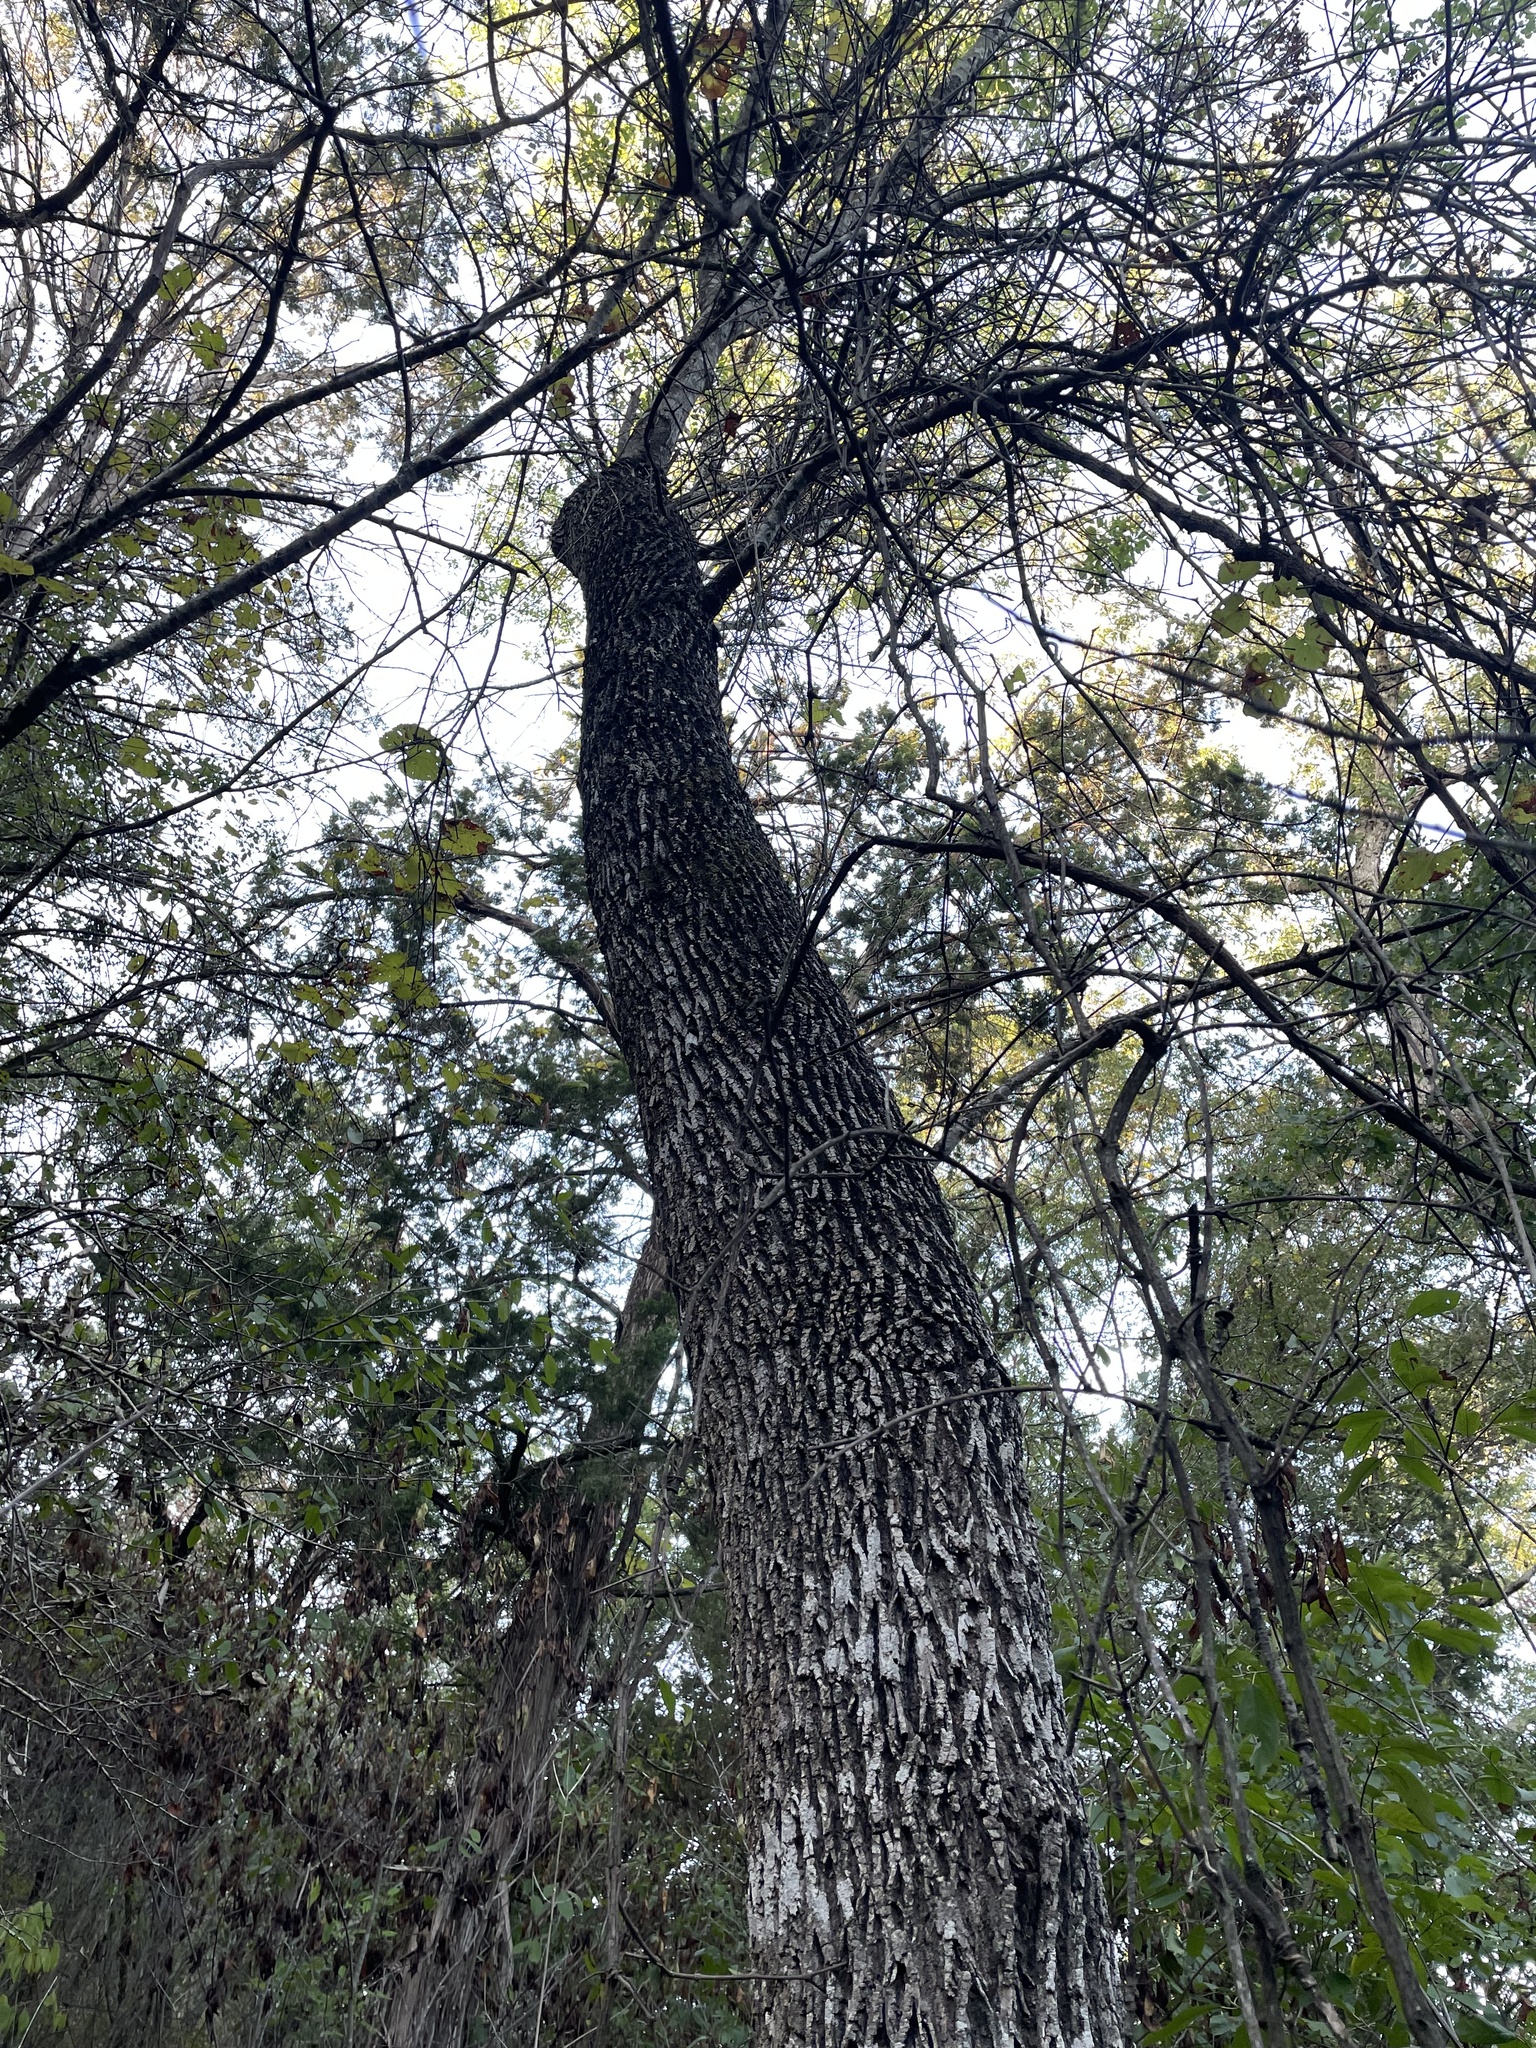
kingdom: Plantae
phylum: Tracheophyta
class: Magnoliopsida
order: Lamiales
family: Oleaceae
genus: Fraxinus
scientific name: Fraxinus albicans
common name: Texas ash
